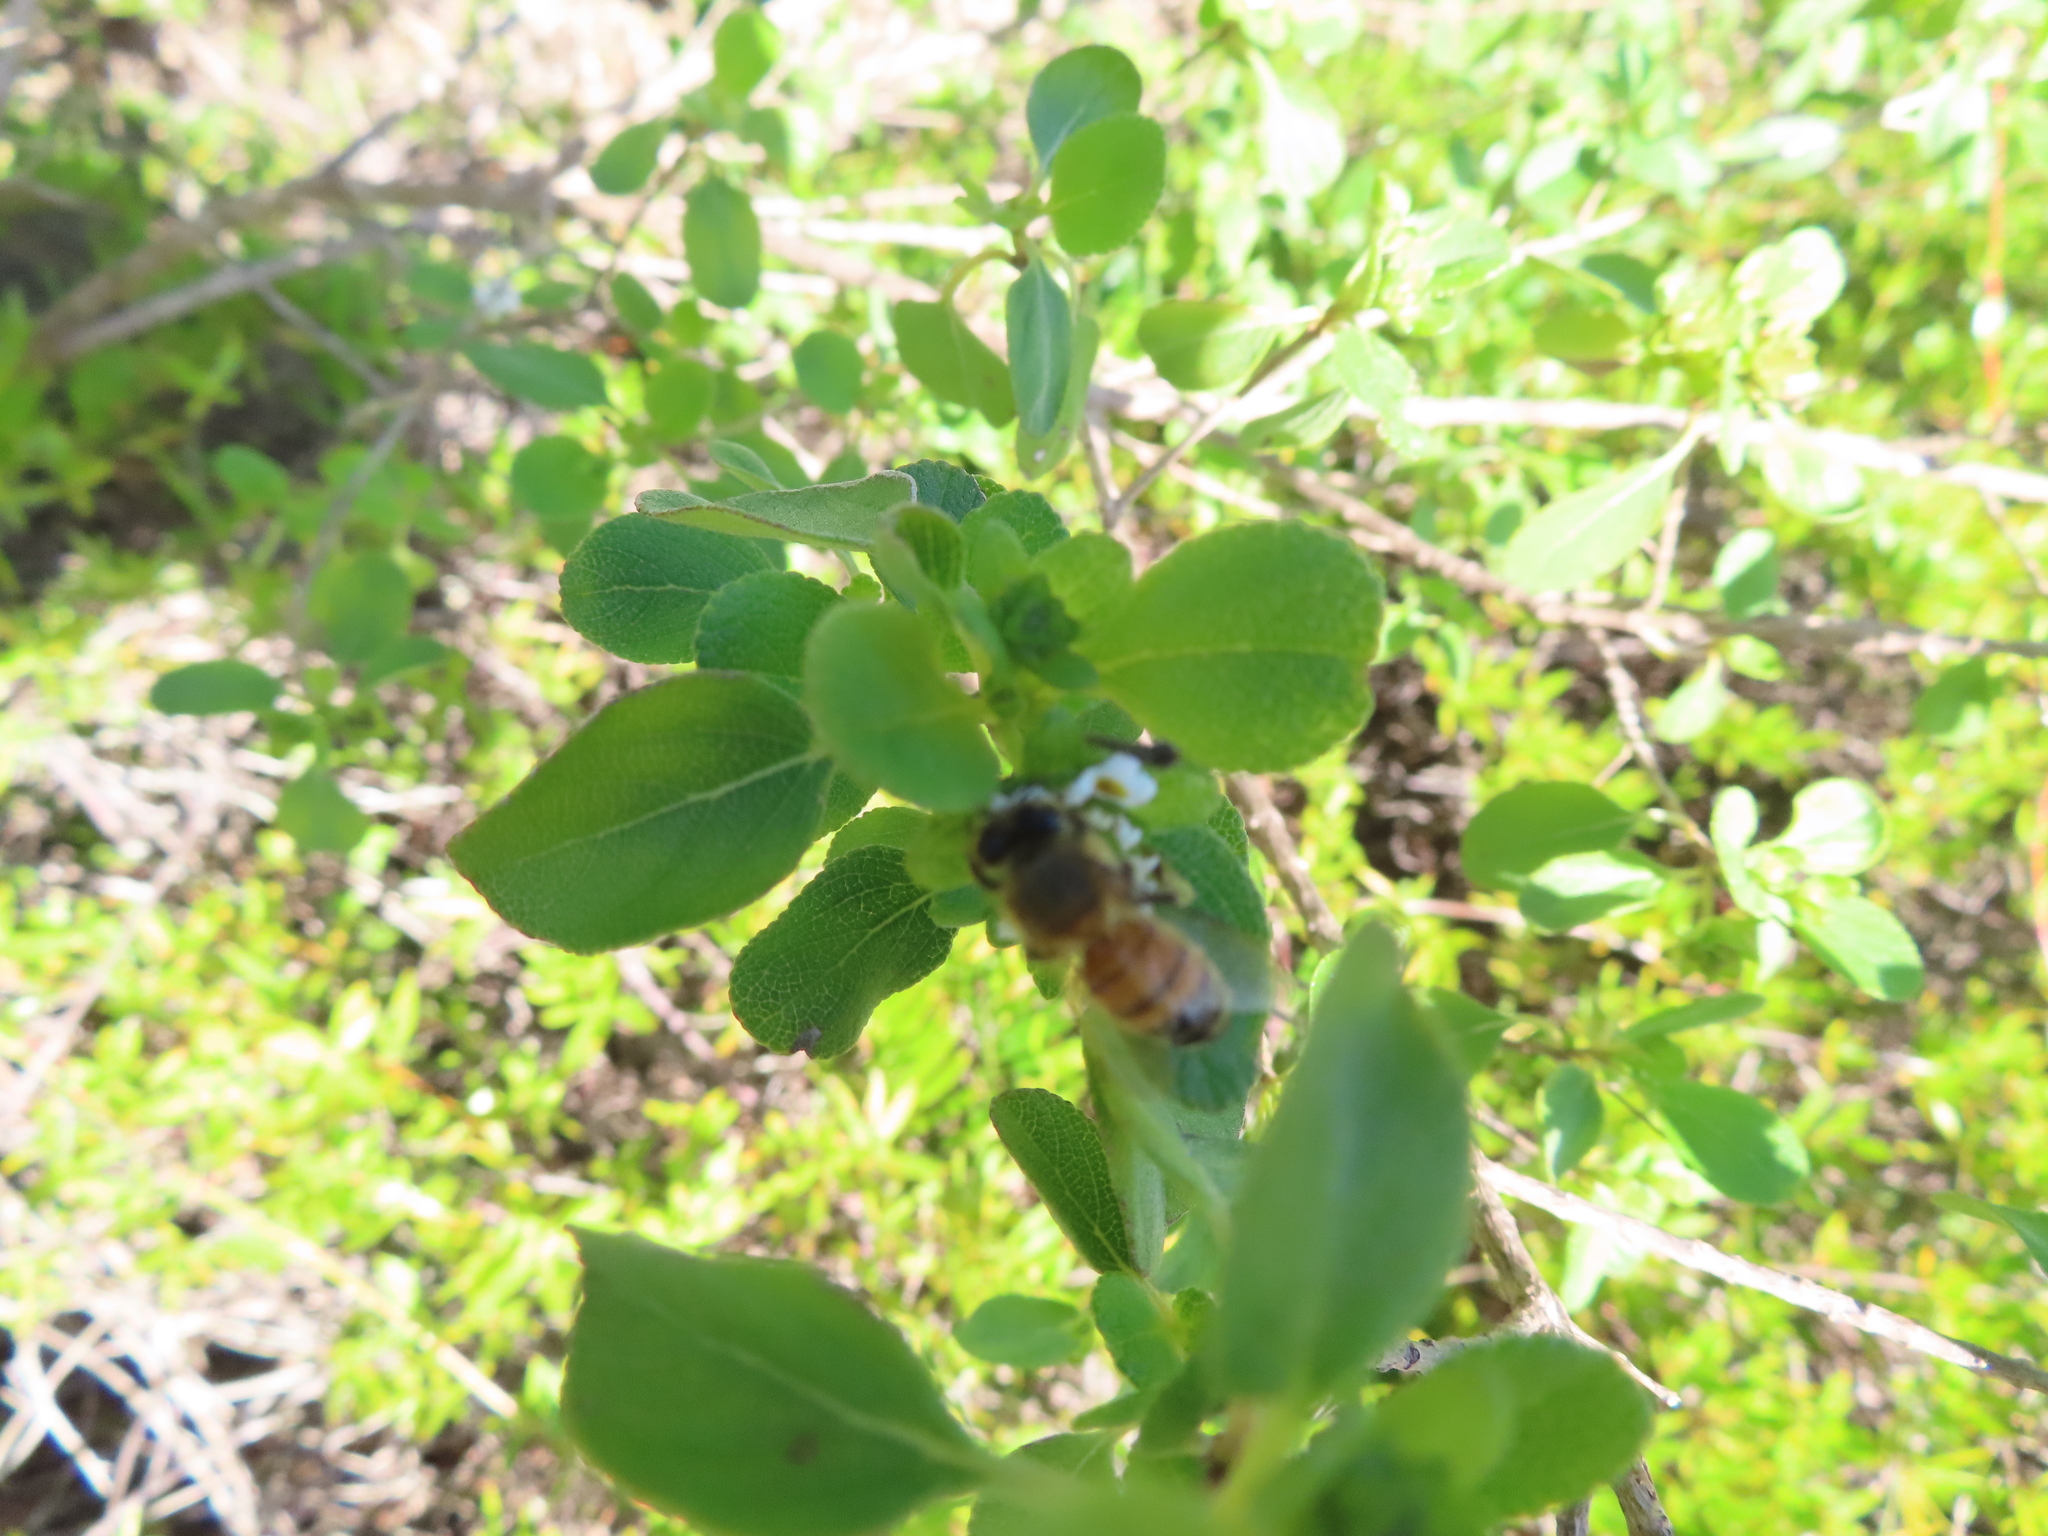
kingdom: Animalia
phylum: Arthropoda
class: Insecta
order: Hymenoptera
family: Apidae
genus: Apis
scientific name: Apis mellifera
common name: Honey bee
